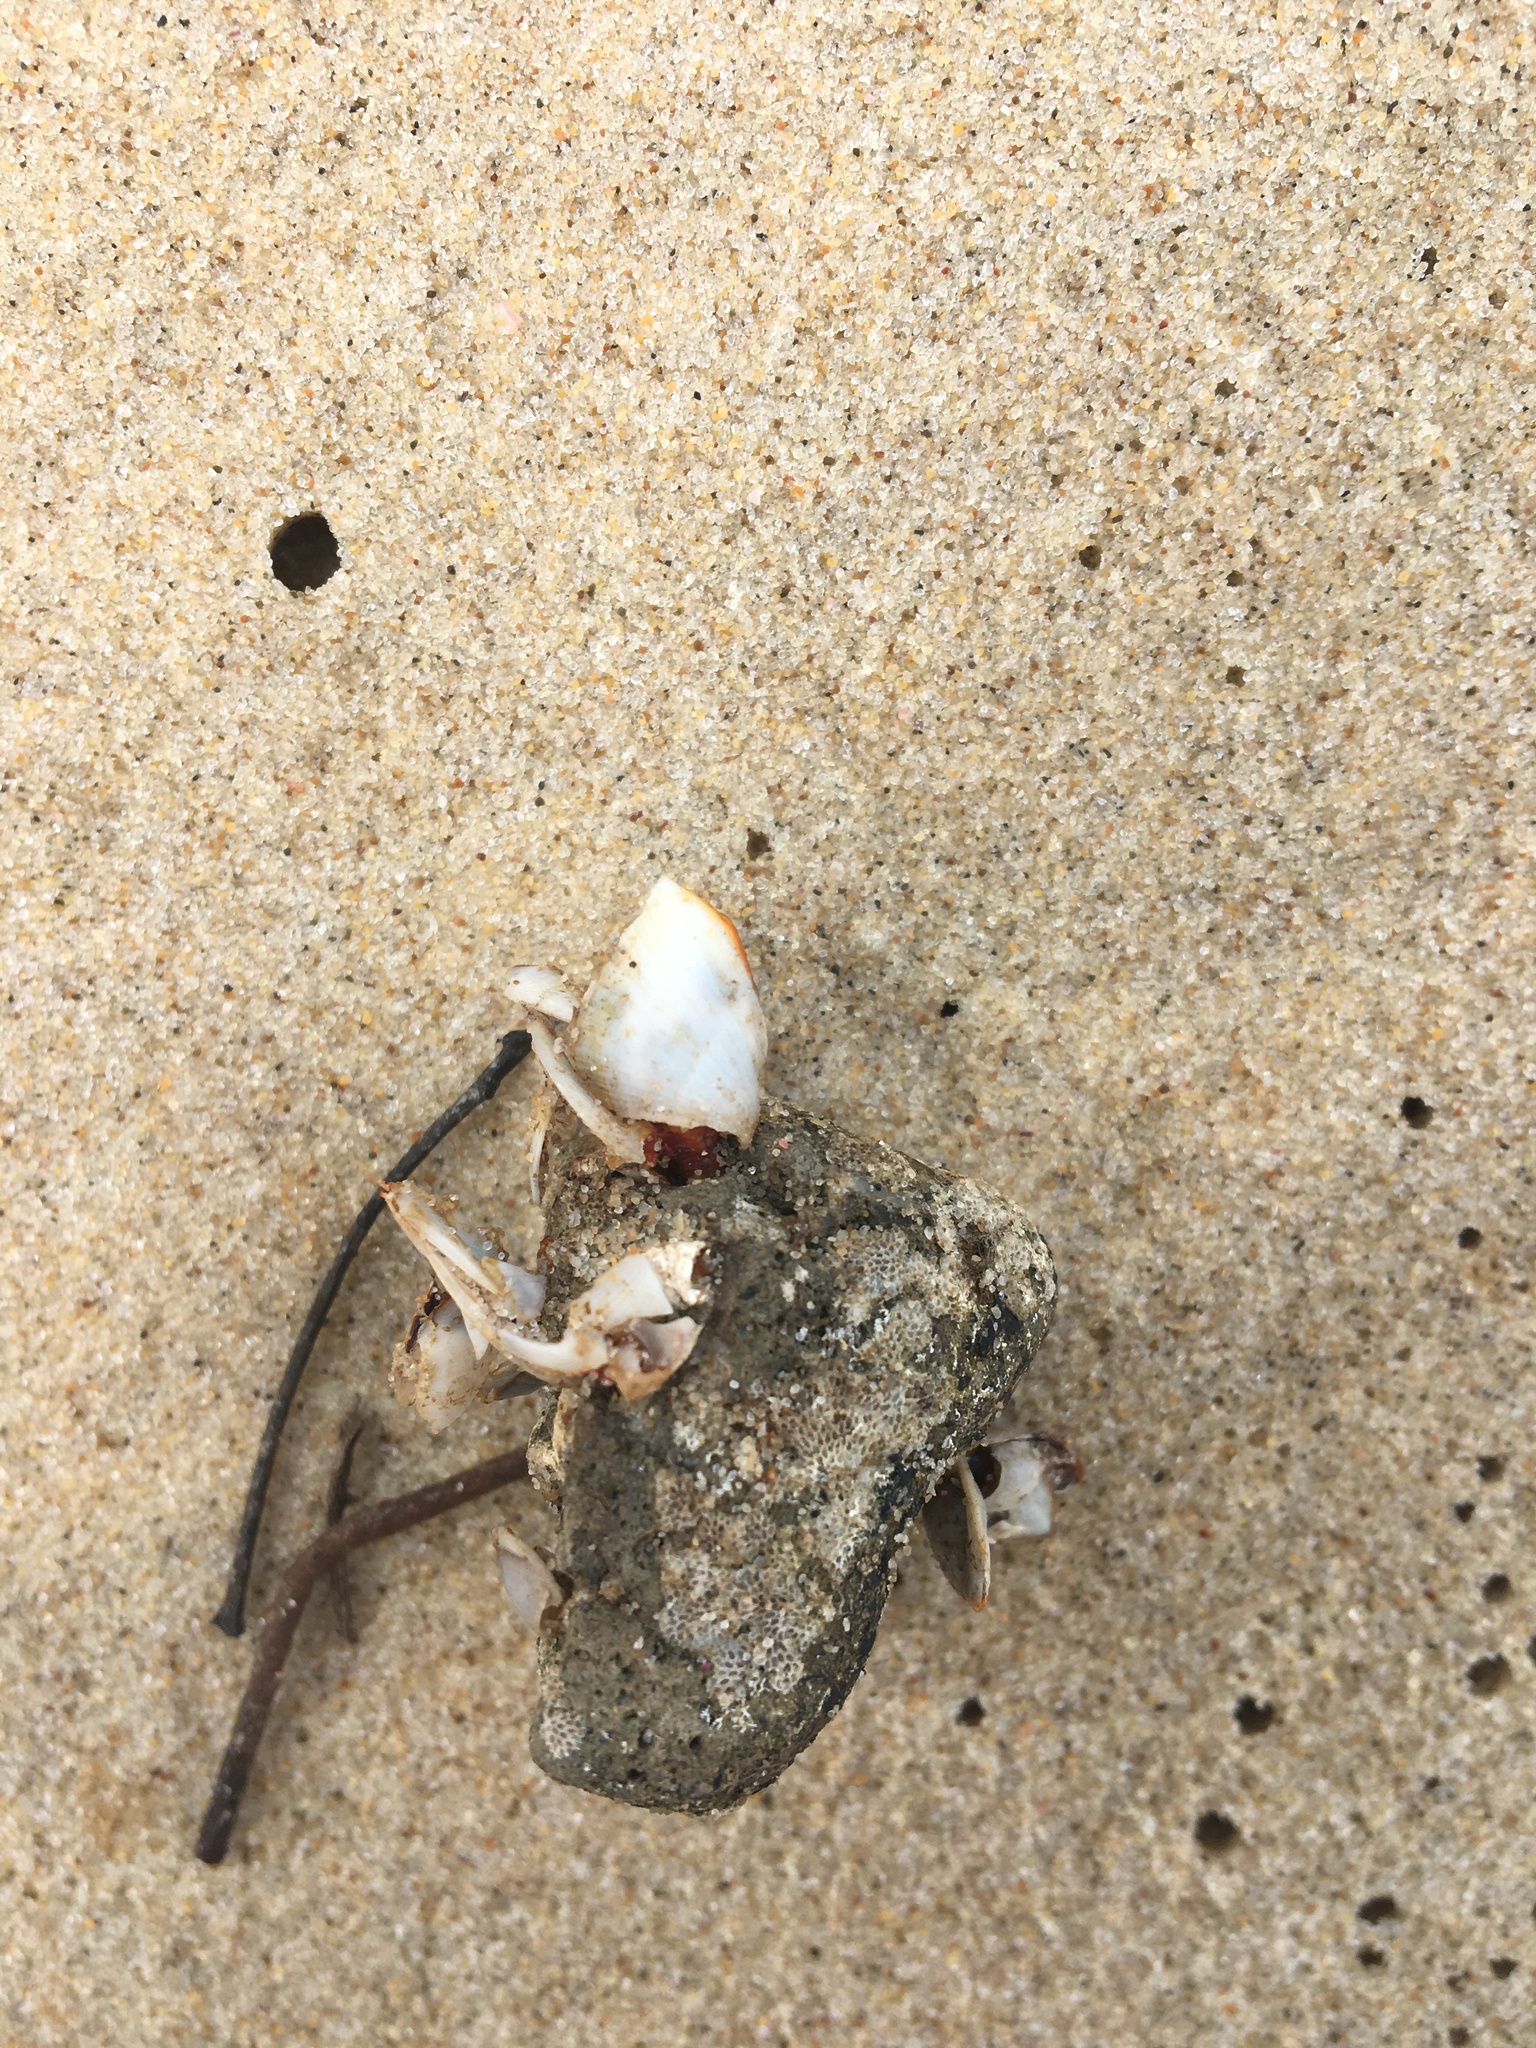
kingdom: Animalia
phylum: Arthropoda
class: Maxillopoda
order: Pedunculata
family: Lepadidae
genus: Lepas
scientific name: Lepas anserifera
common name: Goose barnacle
